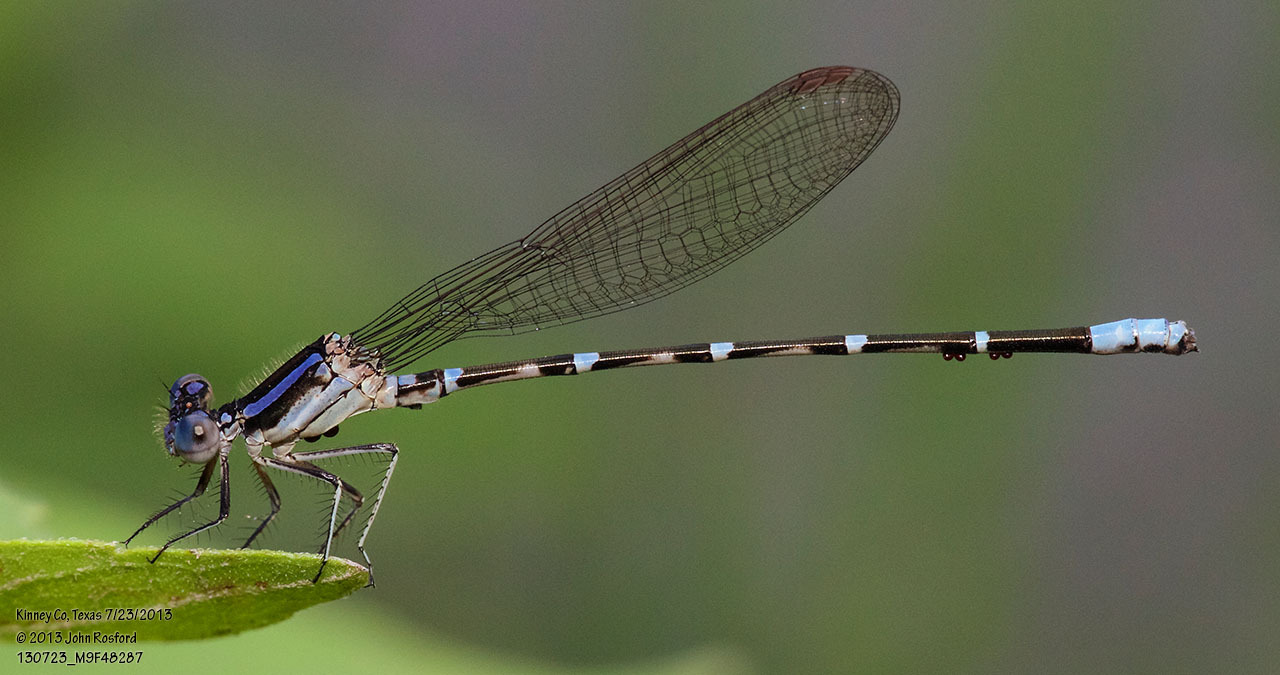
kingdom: Animalia
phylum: Arthropoda
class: Insecta
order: Odonata
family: Coenagrionidae
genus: Argia
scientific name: Argia sedula
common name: Blue-ringed dancer
